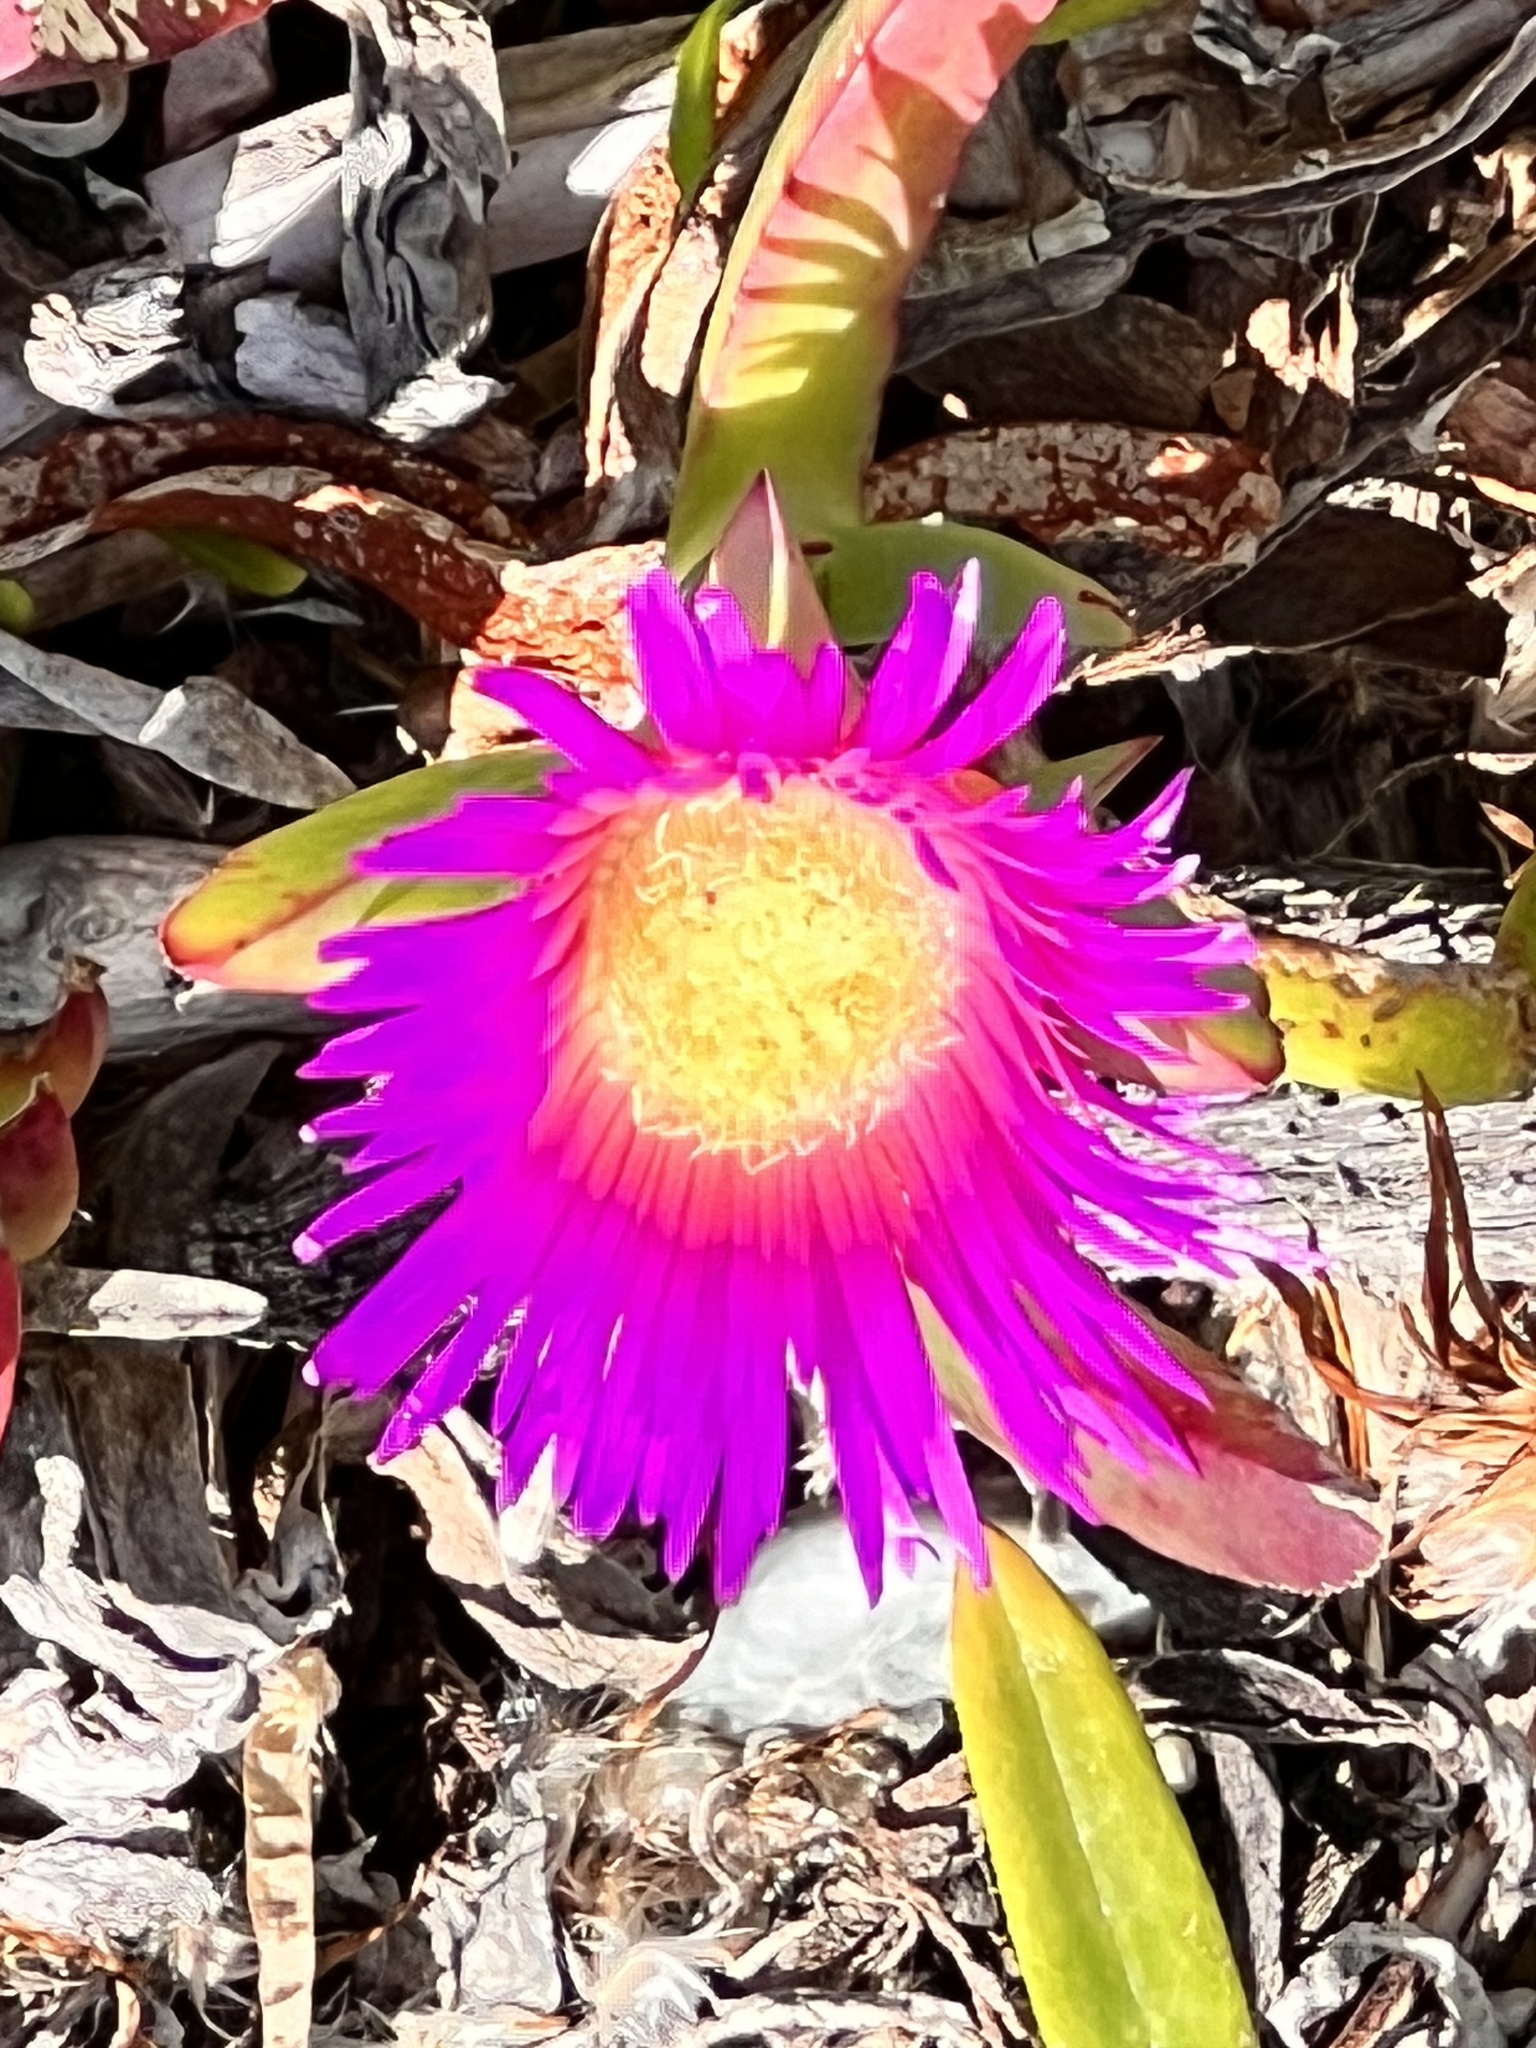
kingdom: Plantae
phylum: Tracheophyta
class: Magnoliopsida
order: Caryophyllales
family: Aizoaceae
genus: Carpobrotus
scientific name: Carpobrotus chilensis
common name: Sea fig
